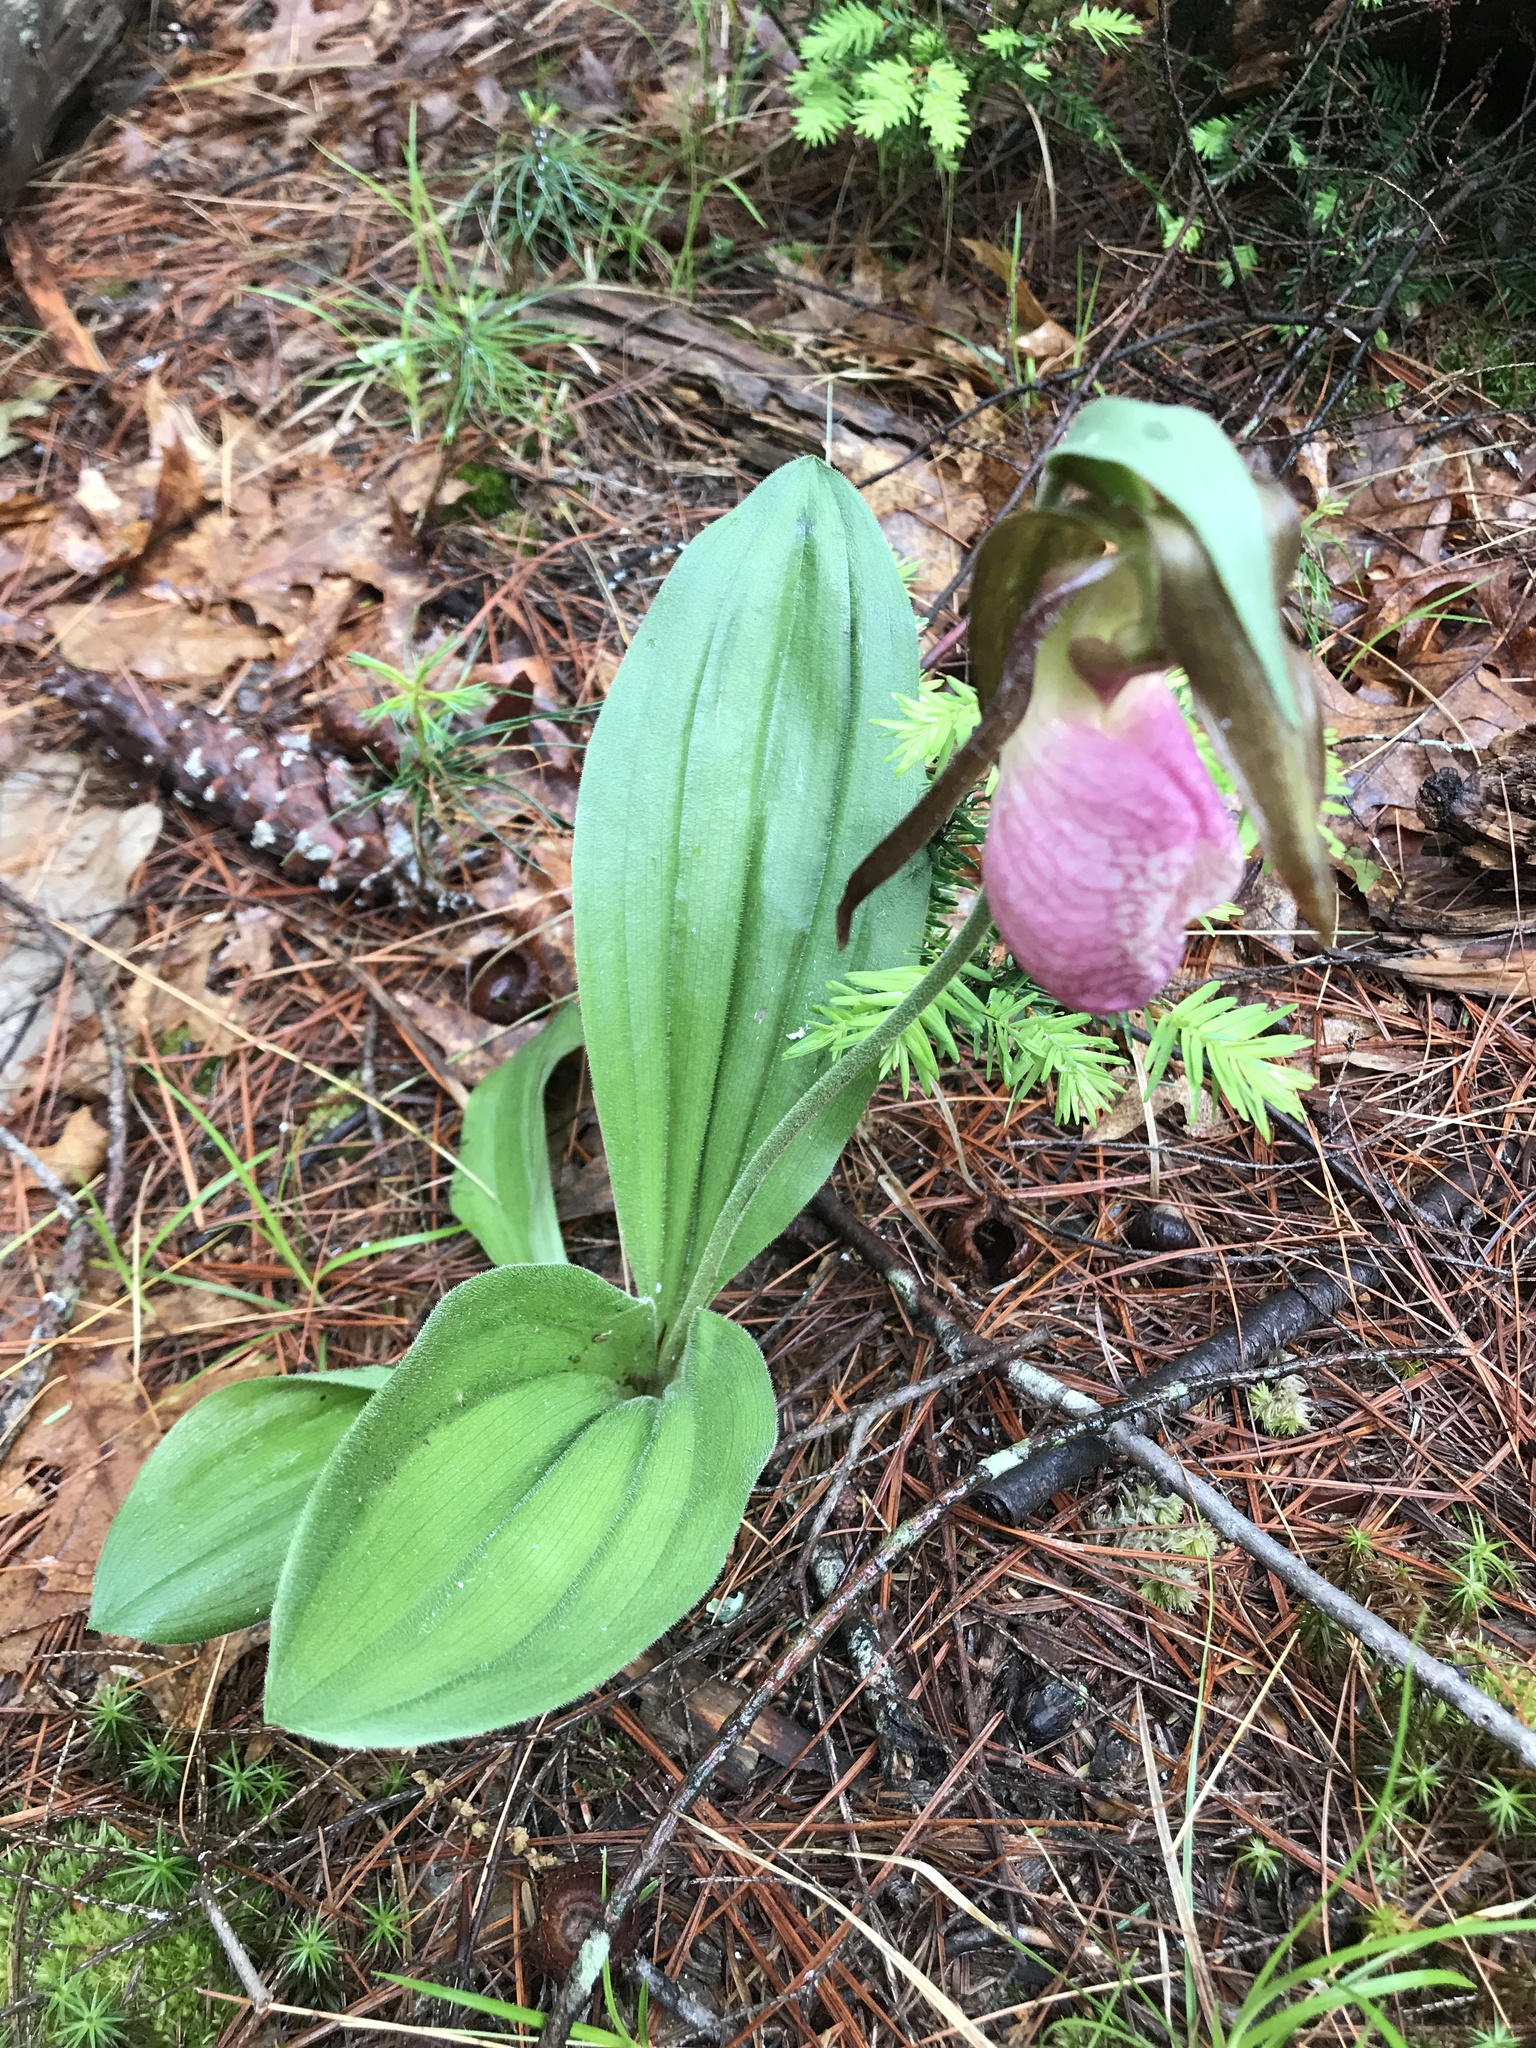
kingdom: Plantae
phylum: Tracheophyta
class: Liliopsida
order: Asparagales
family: Orchidaceae
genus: Cypripedium
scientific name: Cypripedium acaule
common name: Pink lady's-slipper
